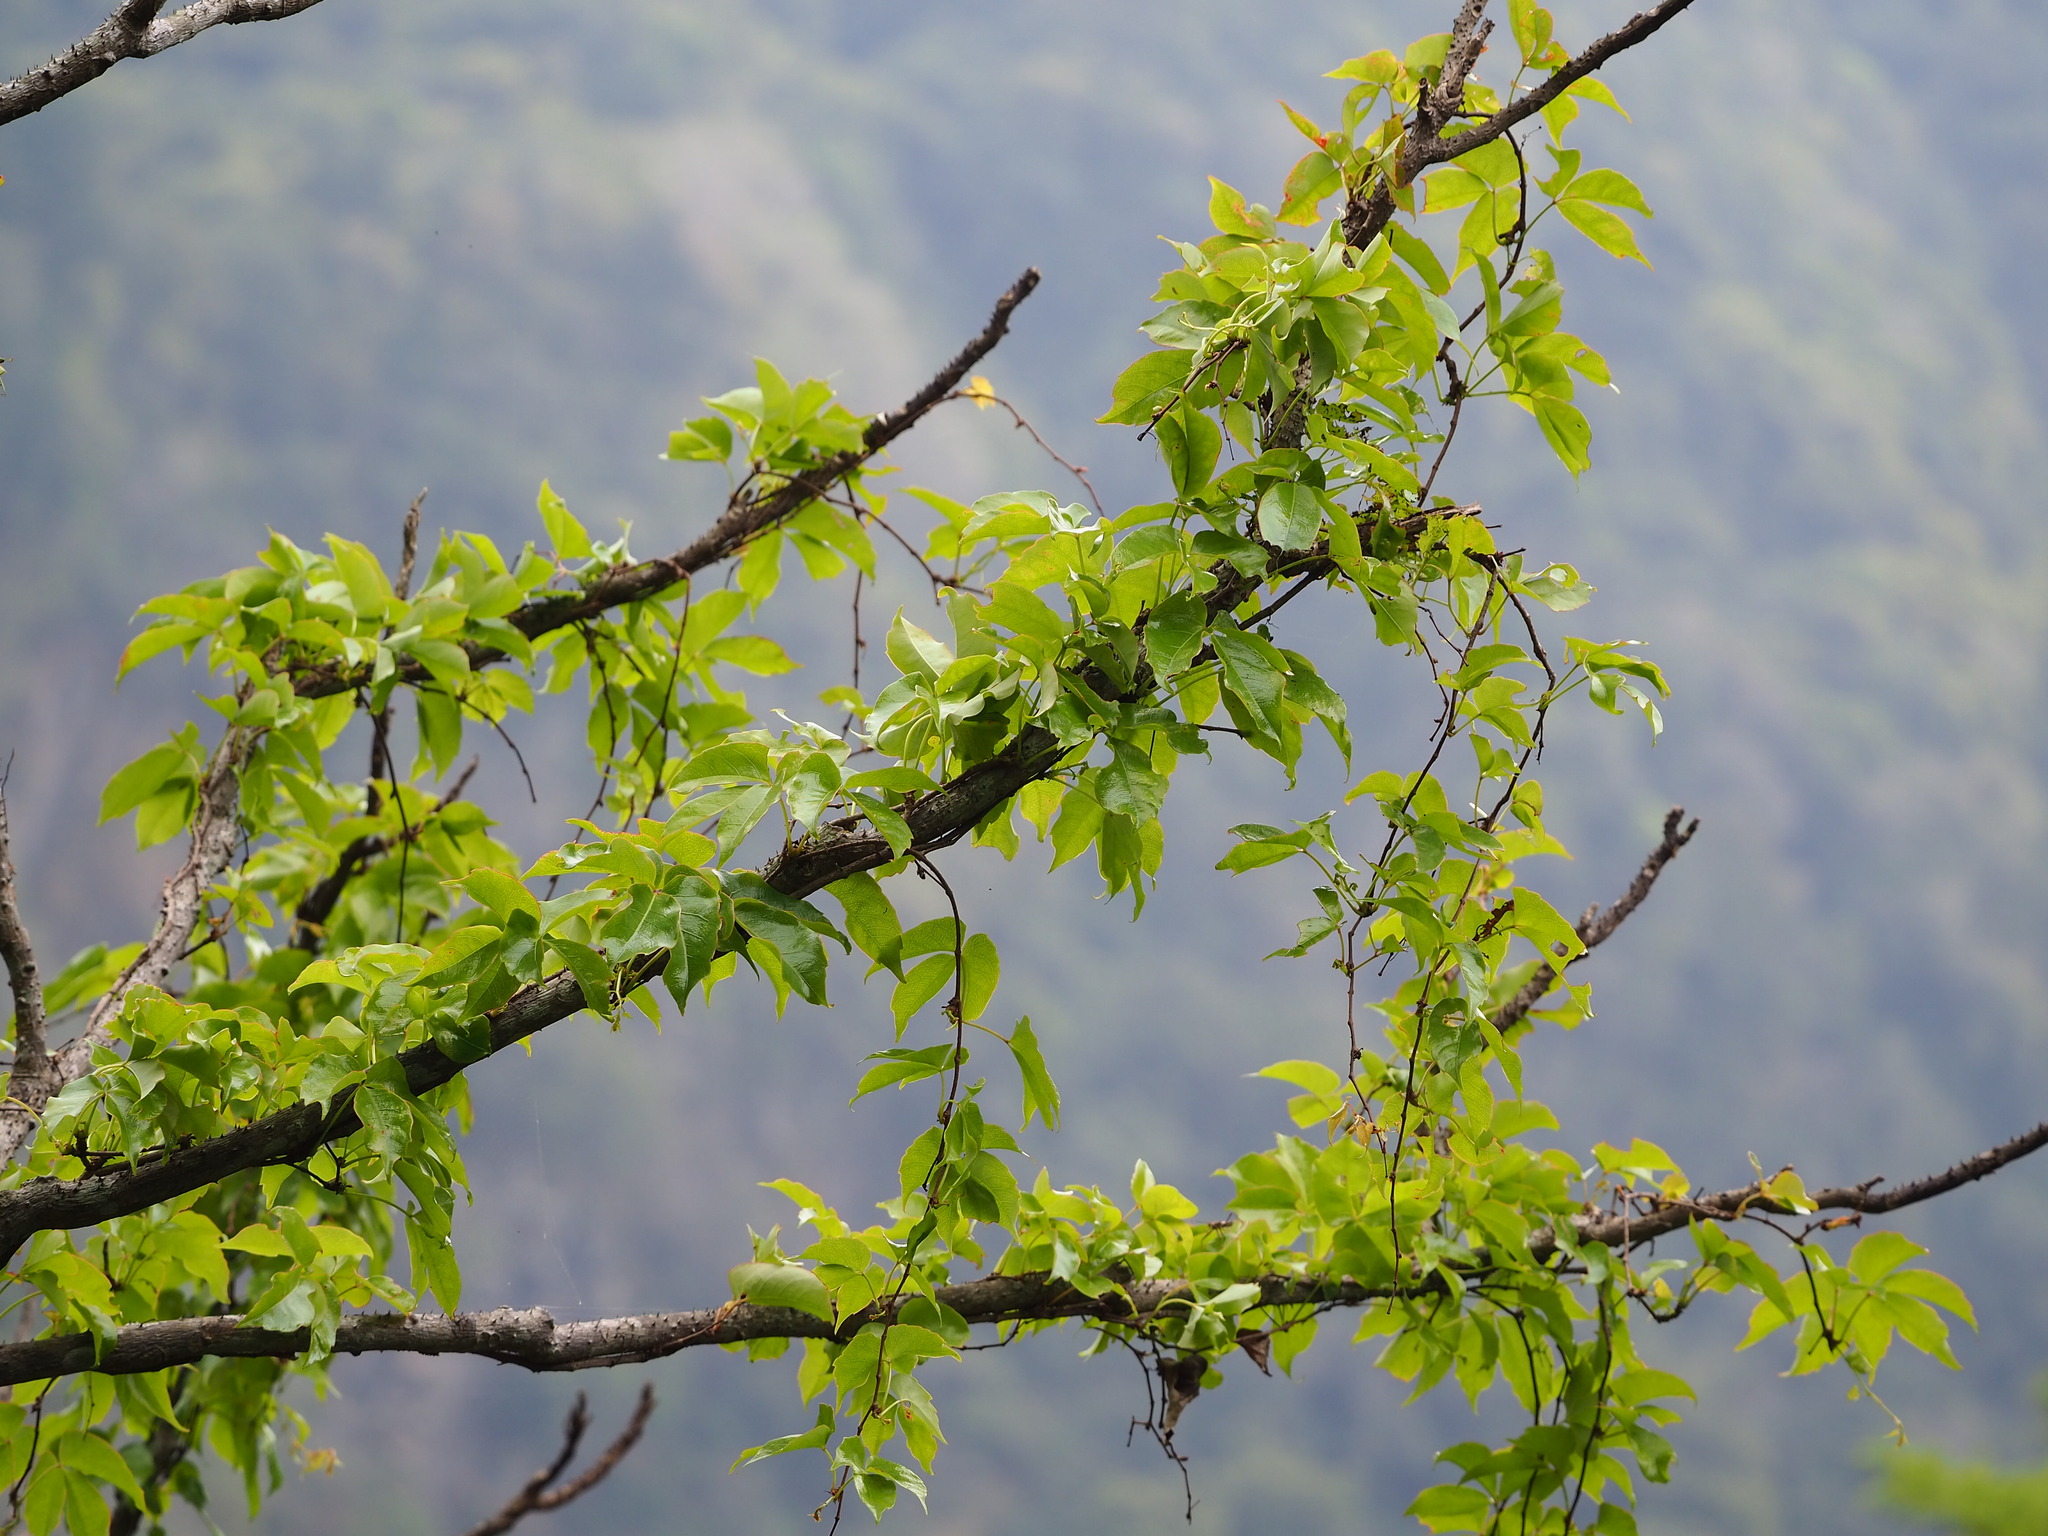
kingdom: Plantae
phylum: Tracheophyta
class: Magnoliopsida
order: Vitales
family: Vitaceae
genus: Parthenocissus
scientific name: Parthenocissus tricuspidata
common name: Boston ivy
